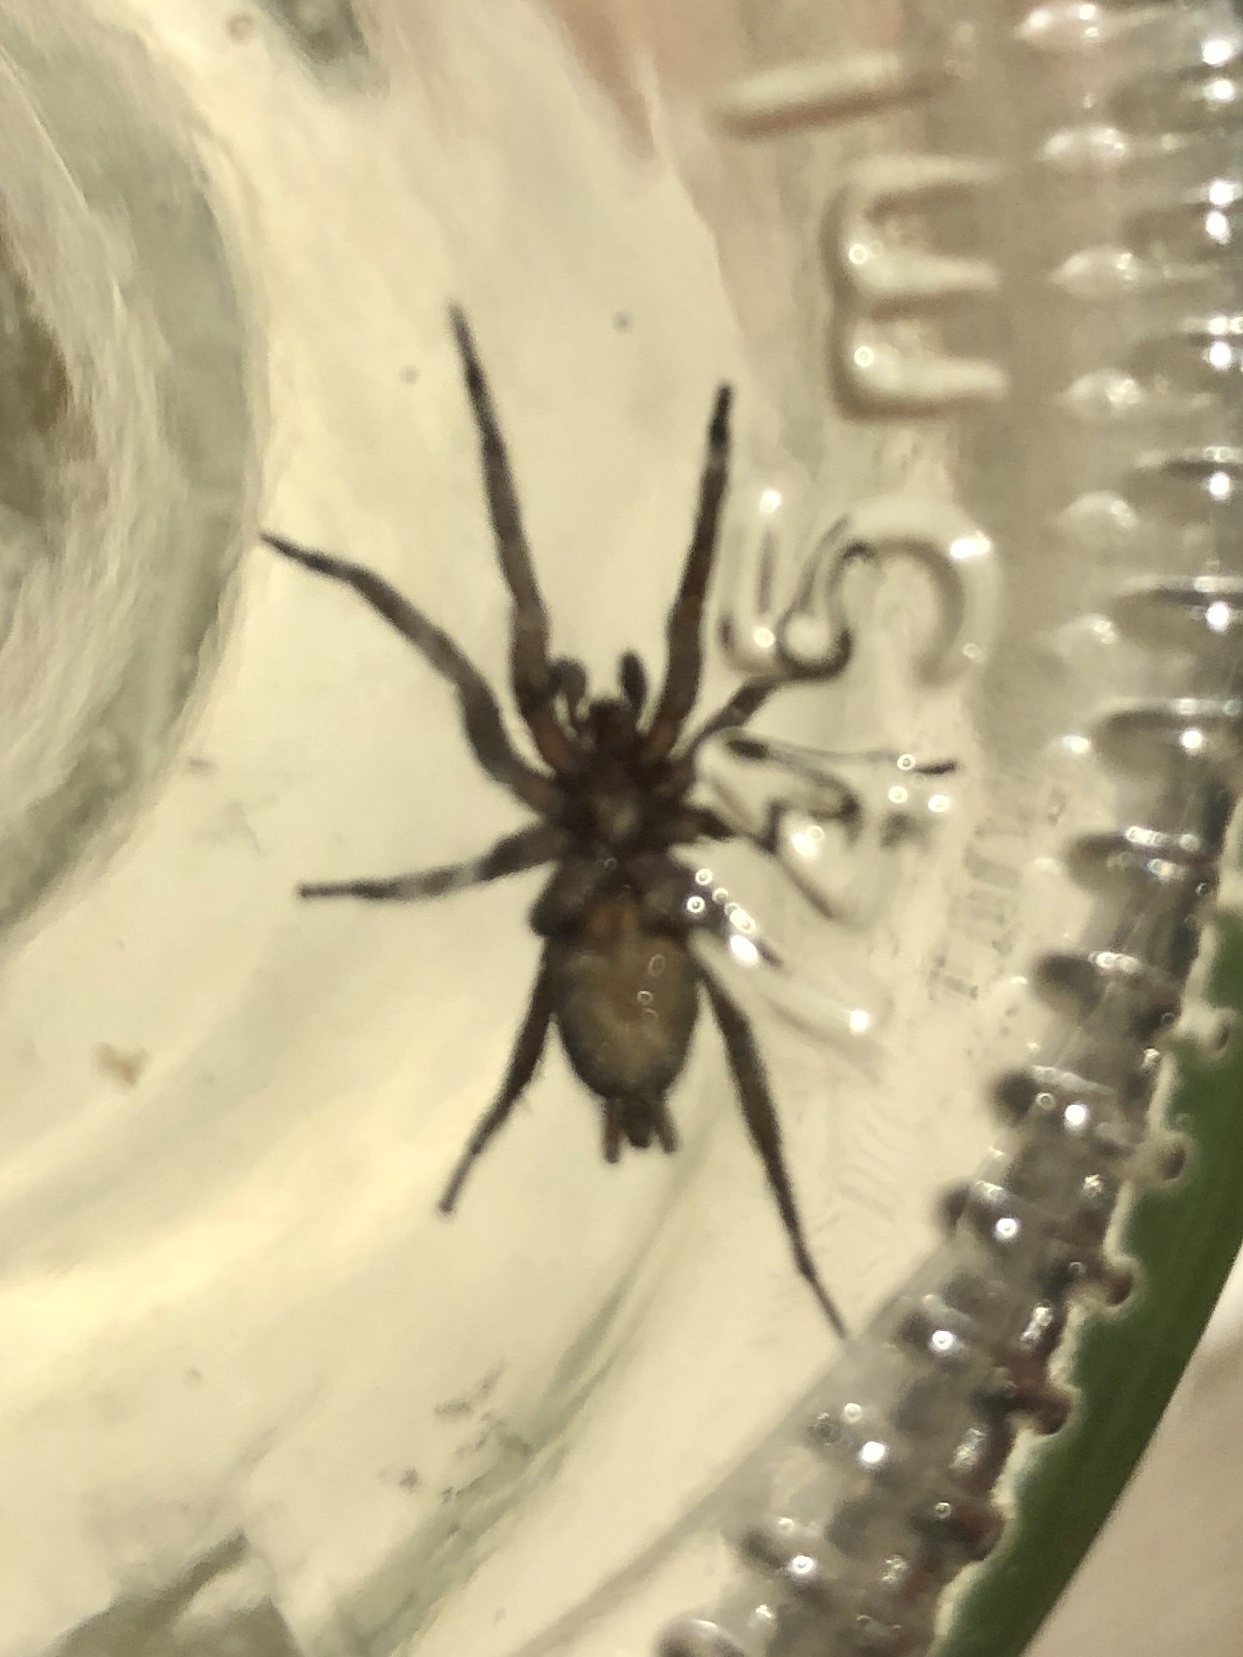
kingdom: Animalia
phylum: Arthropoda
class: Arachnida
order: Araneae
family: Gnaphosidae
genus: Herpyllus
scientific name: Herpyllus propinquus
